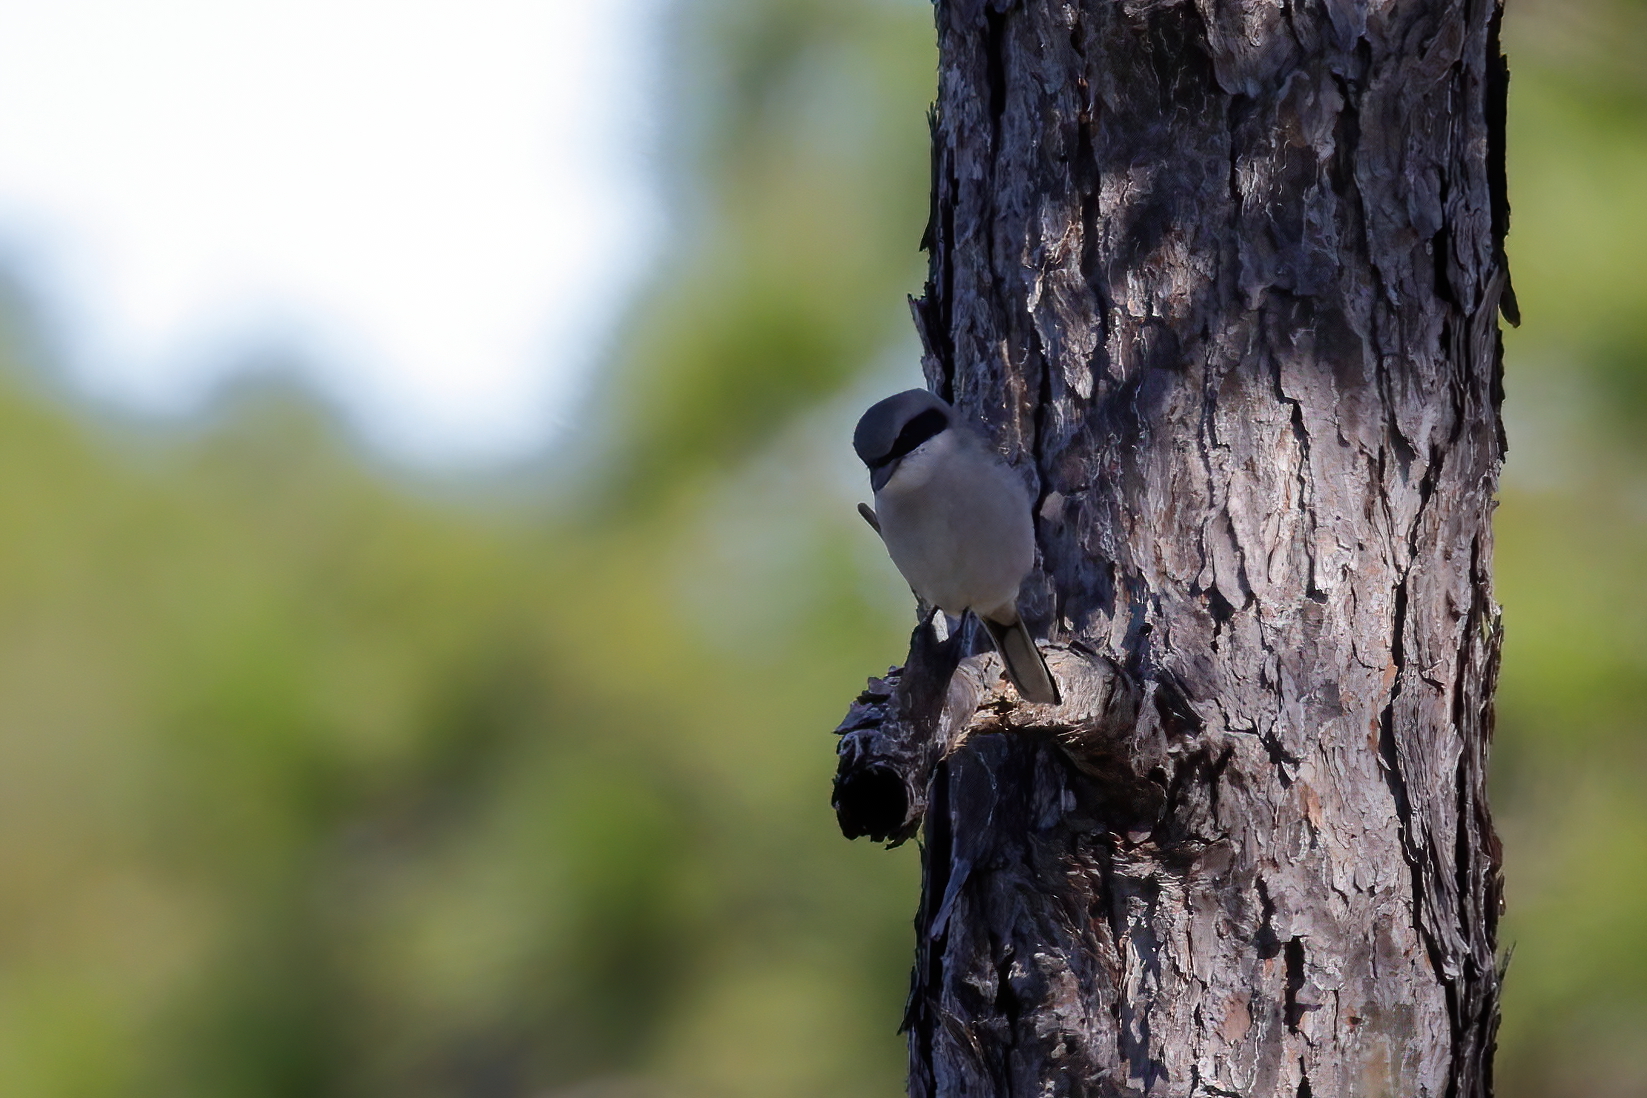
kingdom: Animalia
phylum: Chordata
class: Aves
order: Passeriformes
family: Laniidae
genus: Lanius
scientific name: Lanius ludovicianus
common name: Loggerhead shrike
